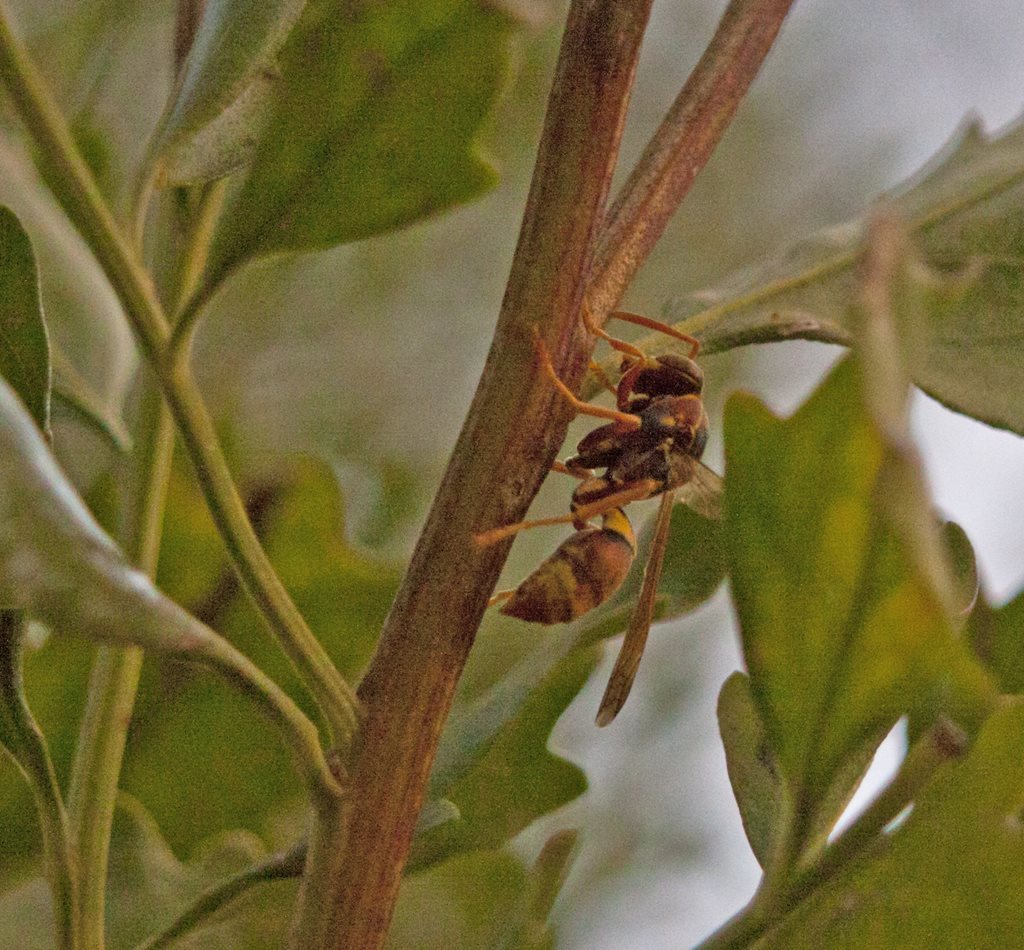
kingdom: Animalia
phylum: Arthropoda
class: Insecta
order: Hymenoptera
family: Eumenidae
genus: Polistes
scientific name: Polistes humilis
